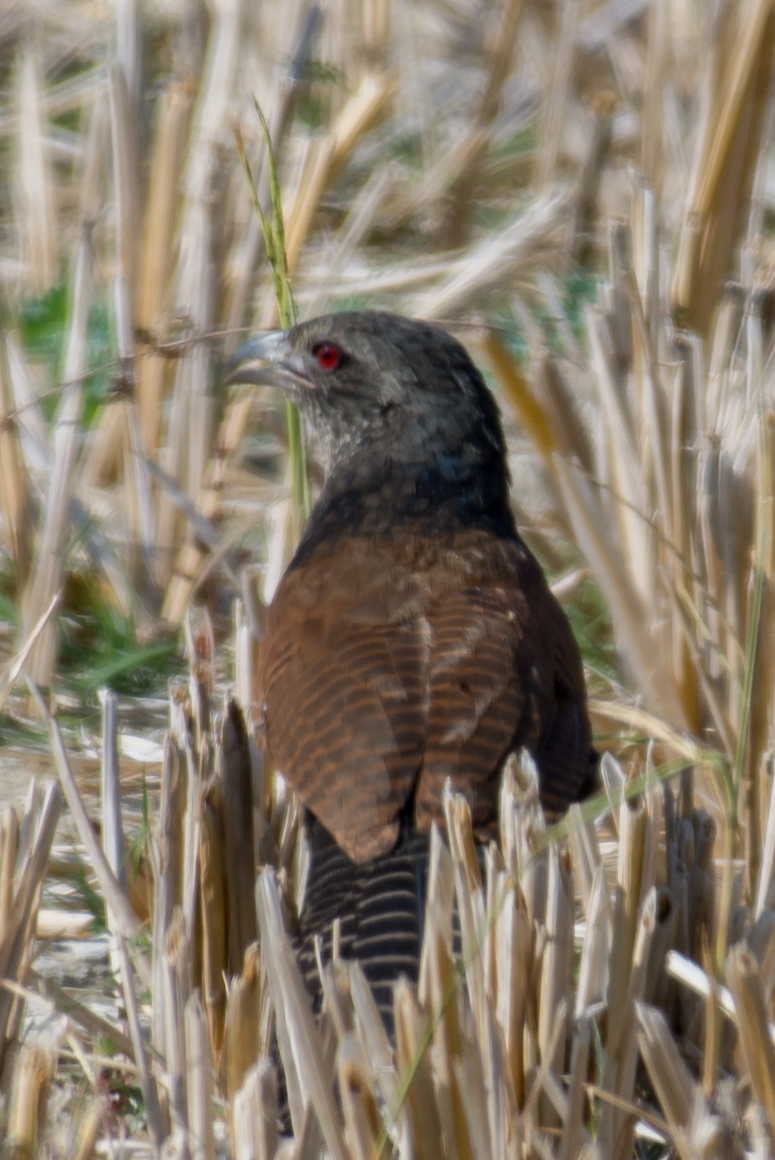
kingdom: Animalia
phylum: Chordata
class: Aves
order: Cuculiformes
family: Cuculidae
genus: Centropus
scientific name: Centropus sinensis
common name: Greater coucal
